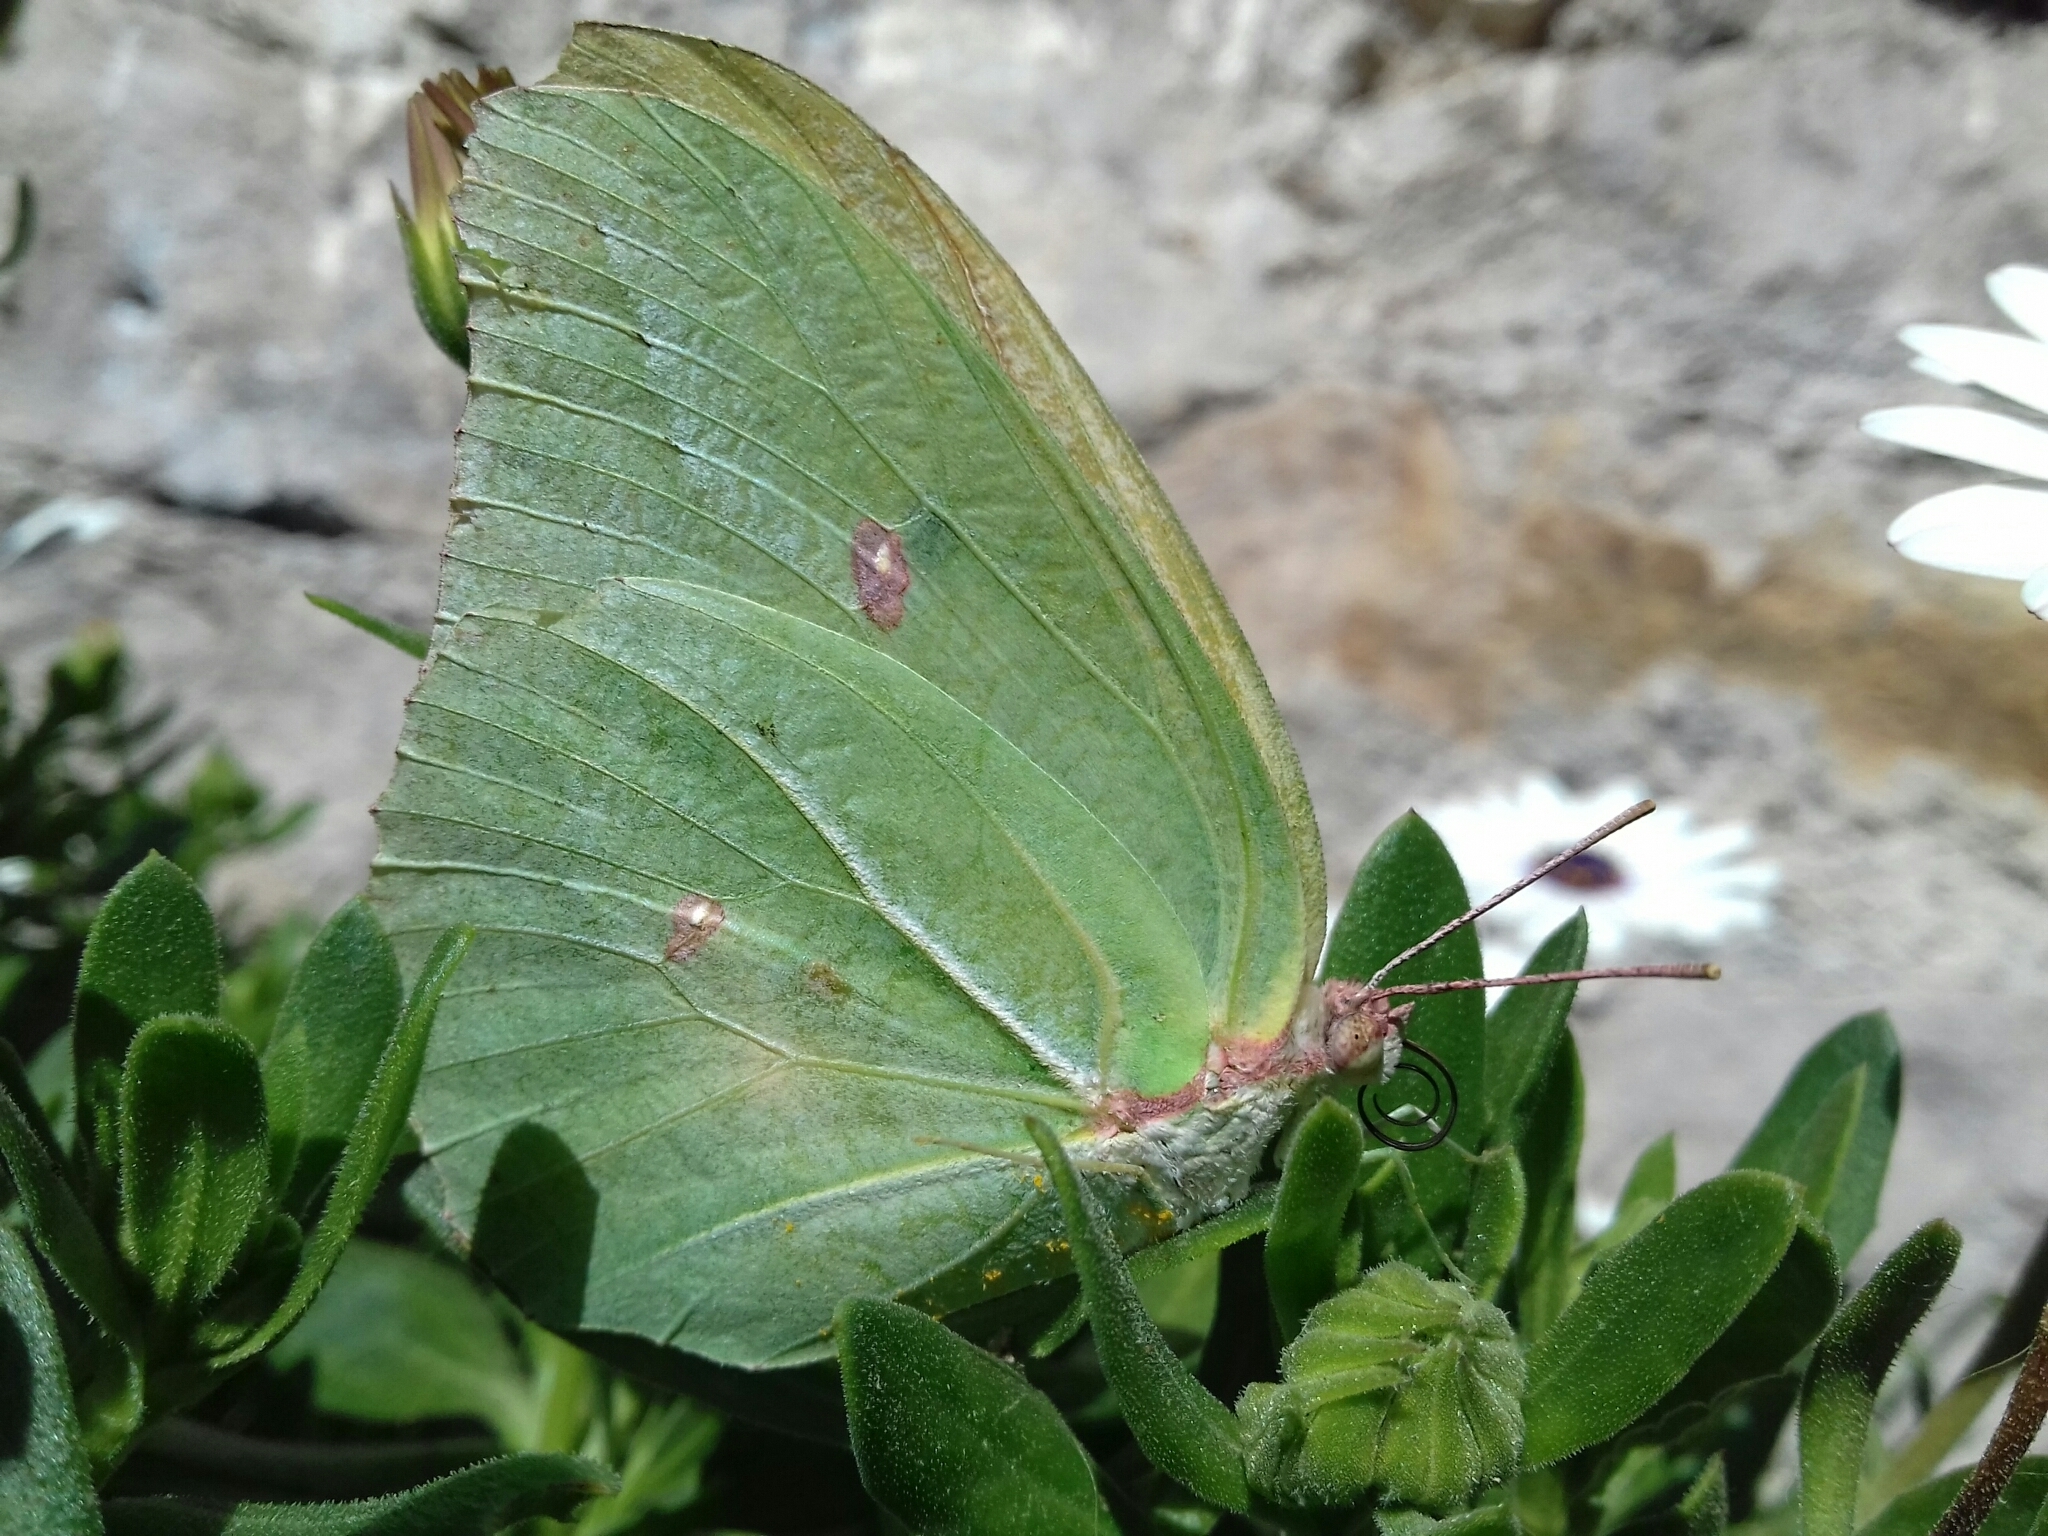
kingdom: Animalia
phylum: Arthropoda
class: Insecta
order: Lepidoptera
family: Pieridae
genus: Anteos
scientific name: Anteos maerula
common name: Angled sulphur
